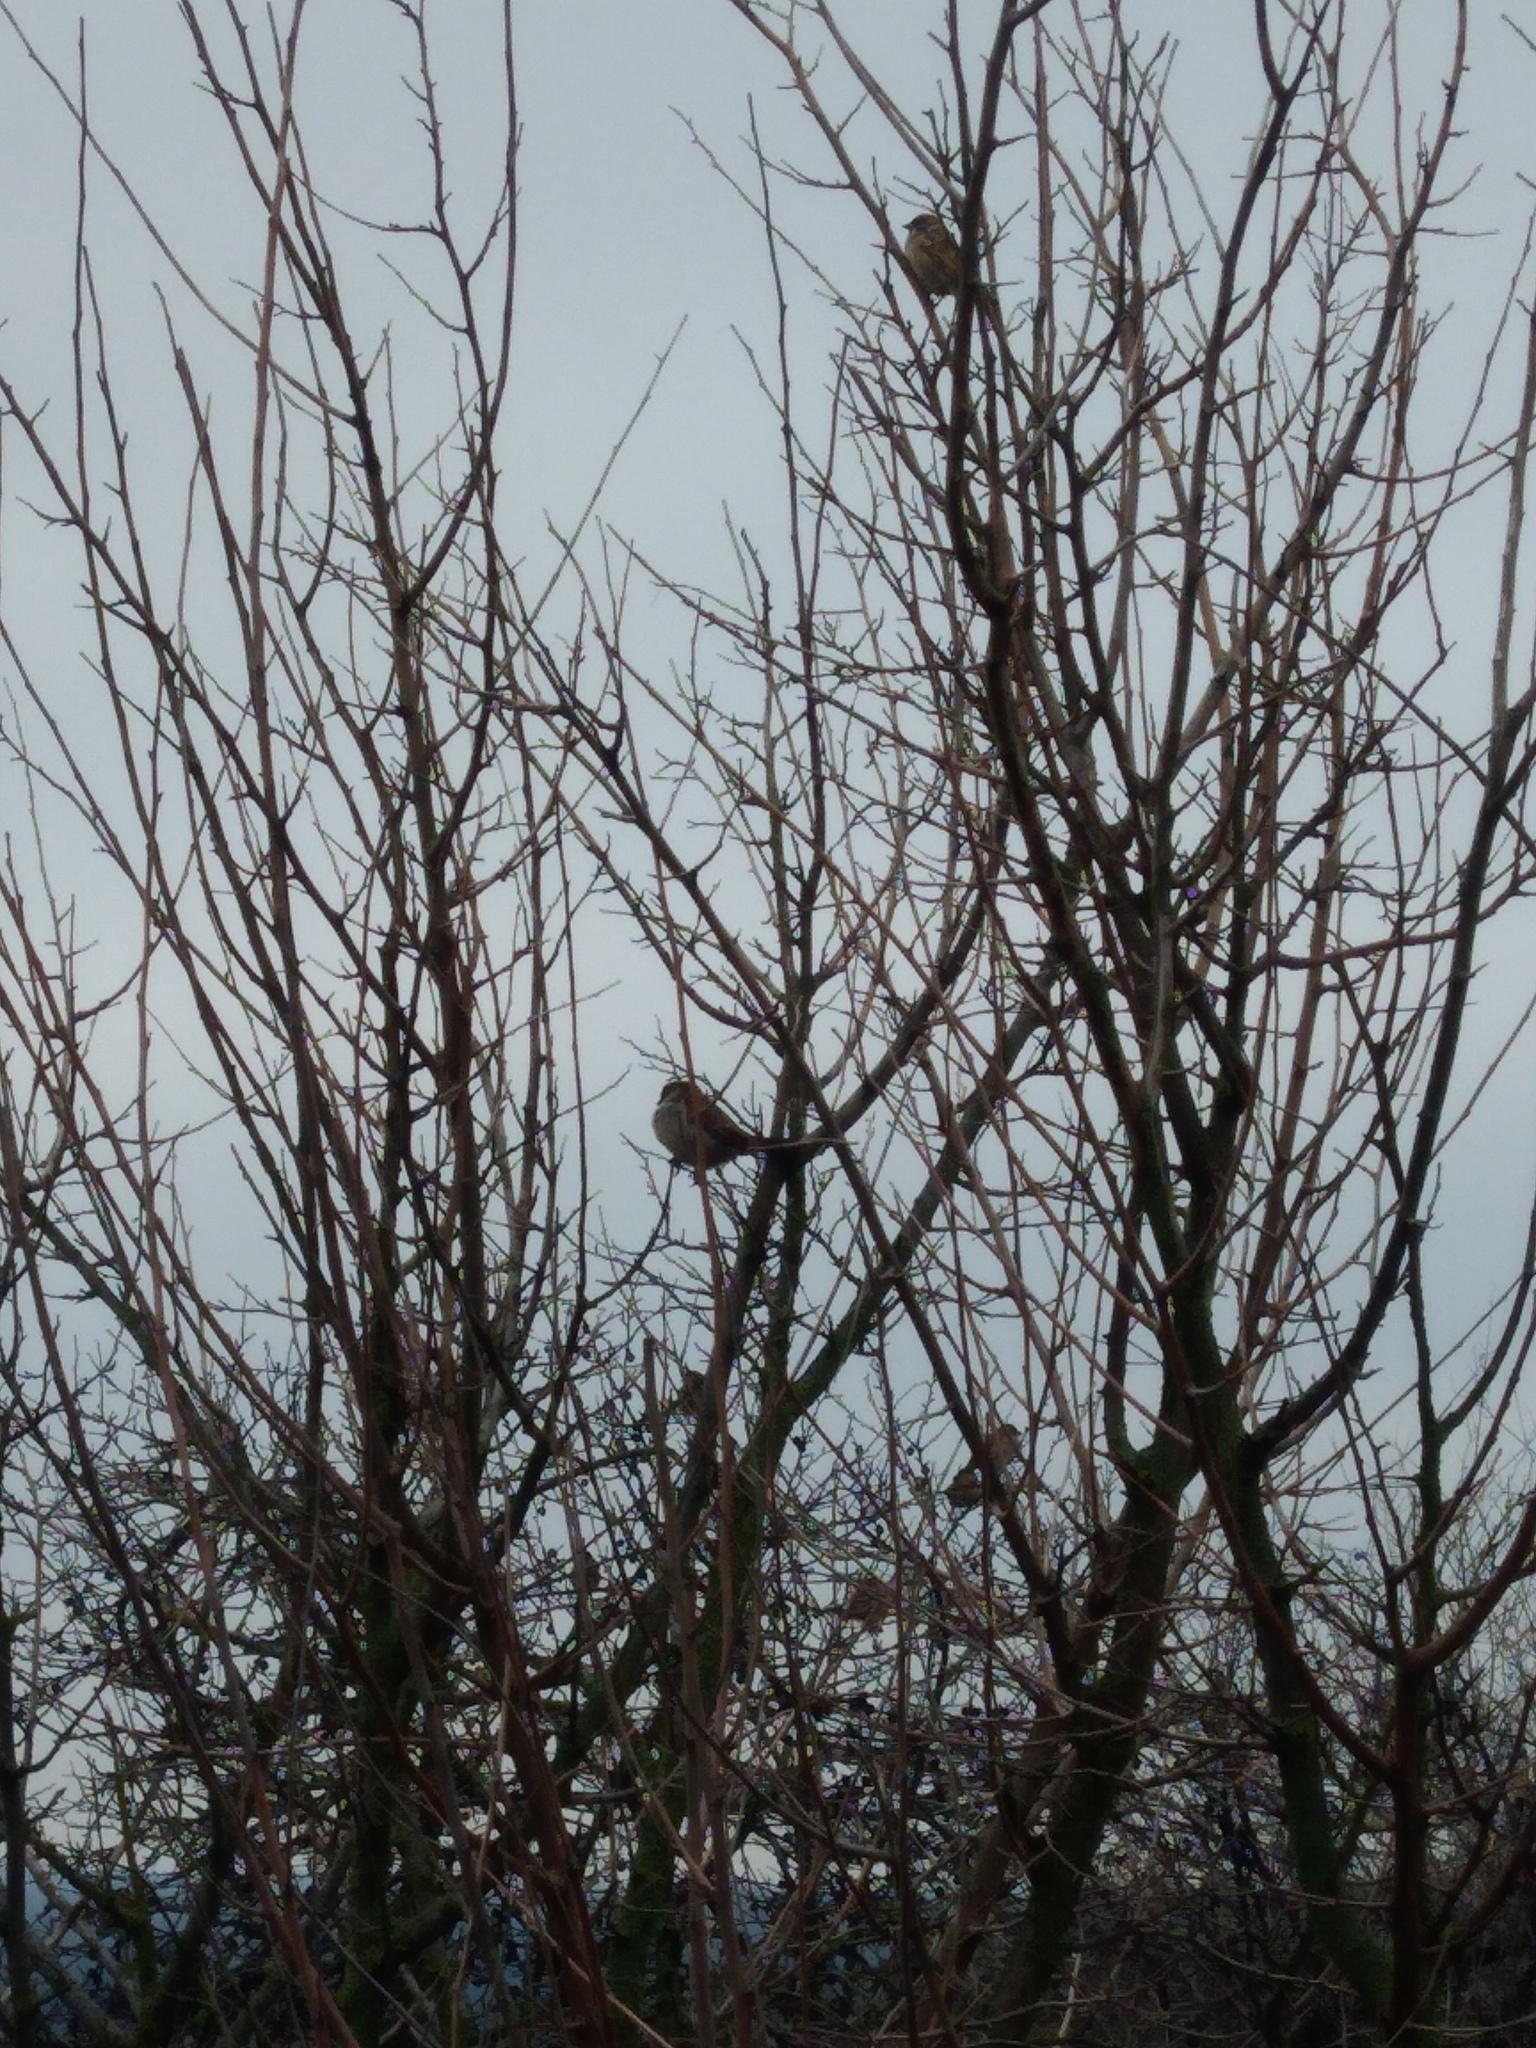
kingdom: Animalia
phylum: Chordata
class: Aves
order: Passeriformes
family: Passeridae
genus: Passer
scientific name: Passer domesticus
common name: House sparrow
